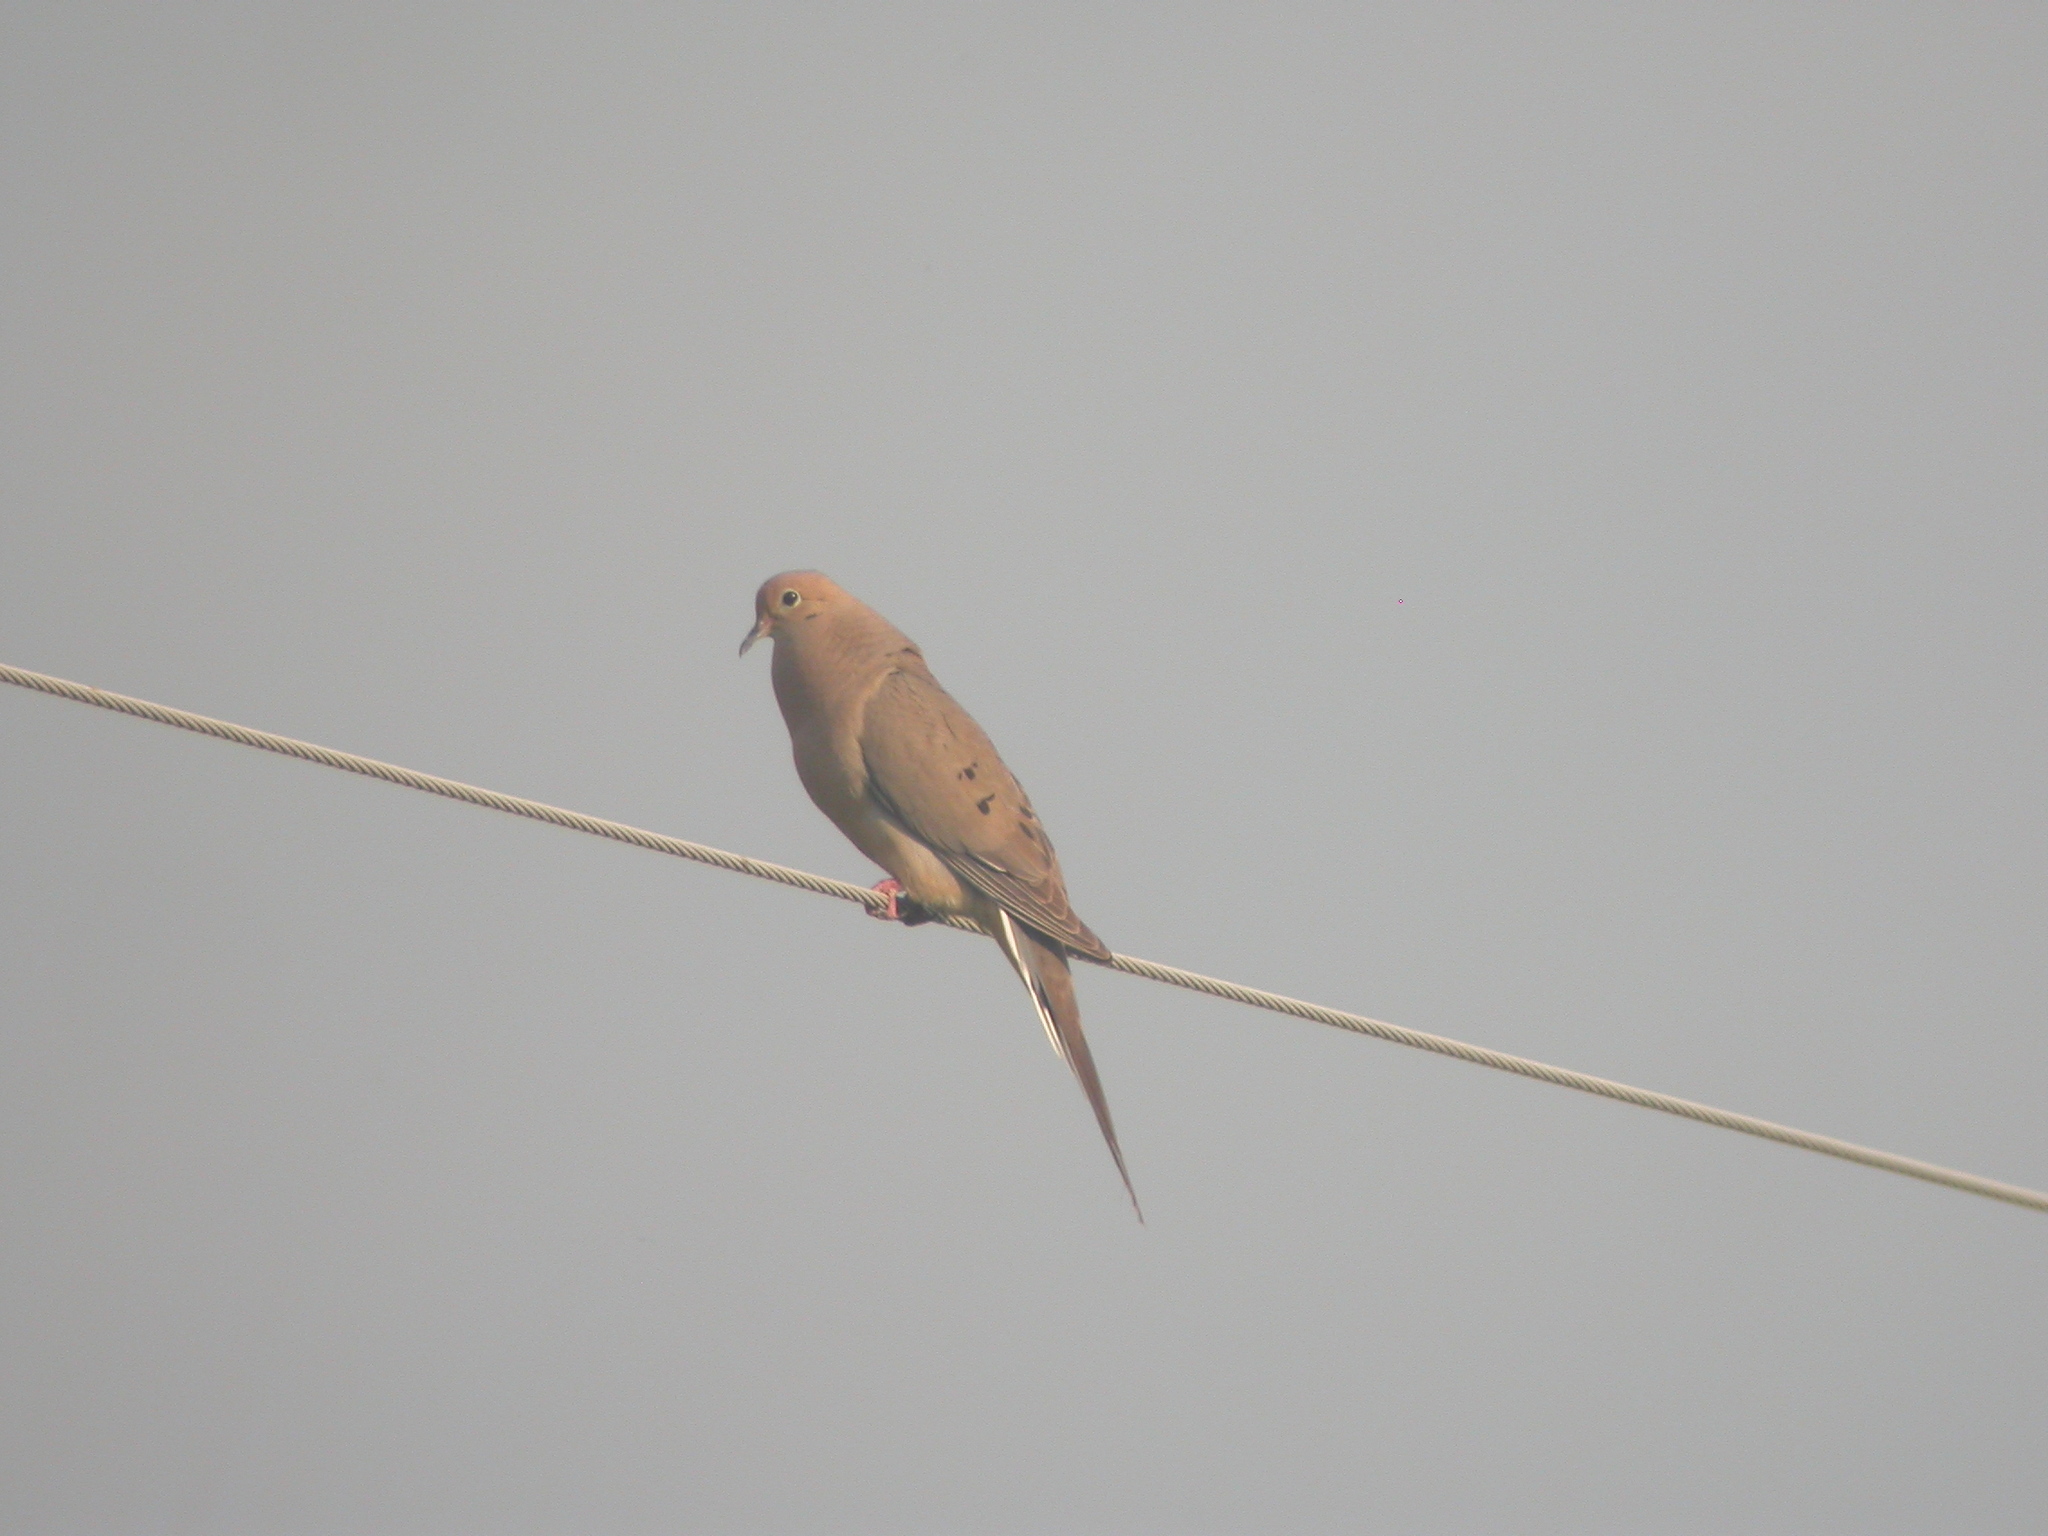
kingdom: Animalia
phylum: Chordata
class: Aves
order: Columbiformes
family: Columbidae
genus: Zenaida
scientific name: Zenaida macroura
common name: Mourning dove
